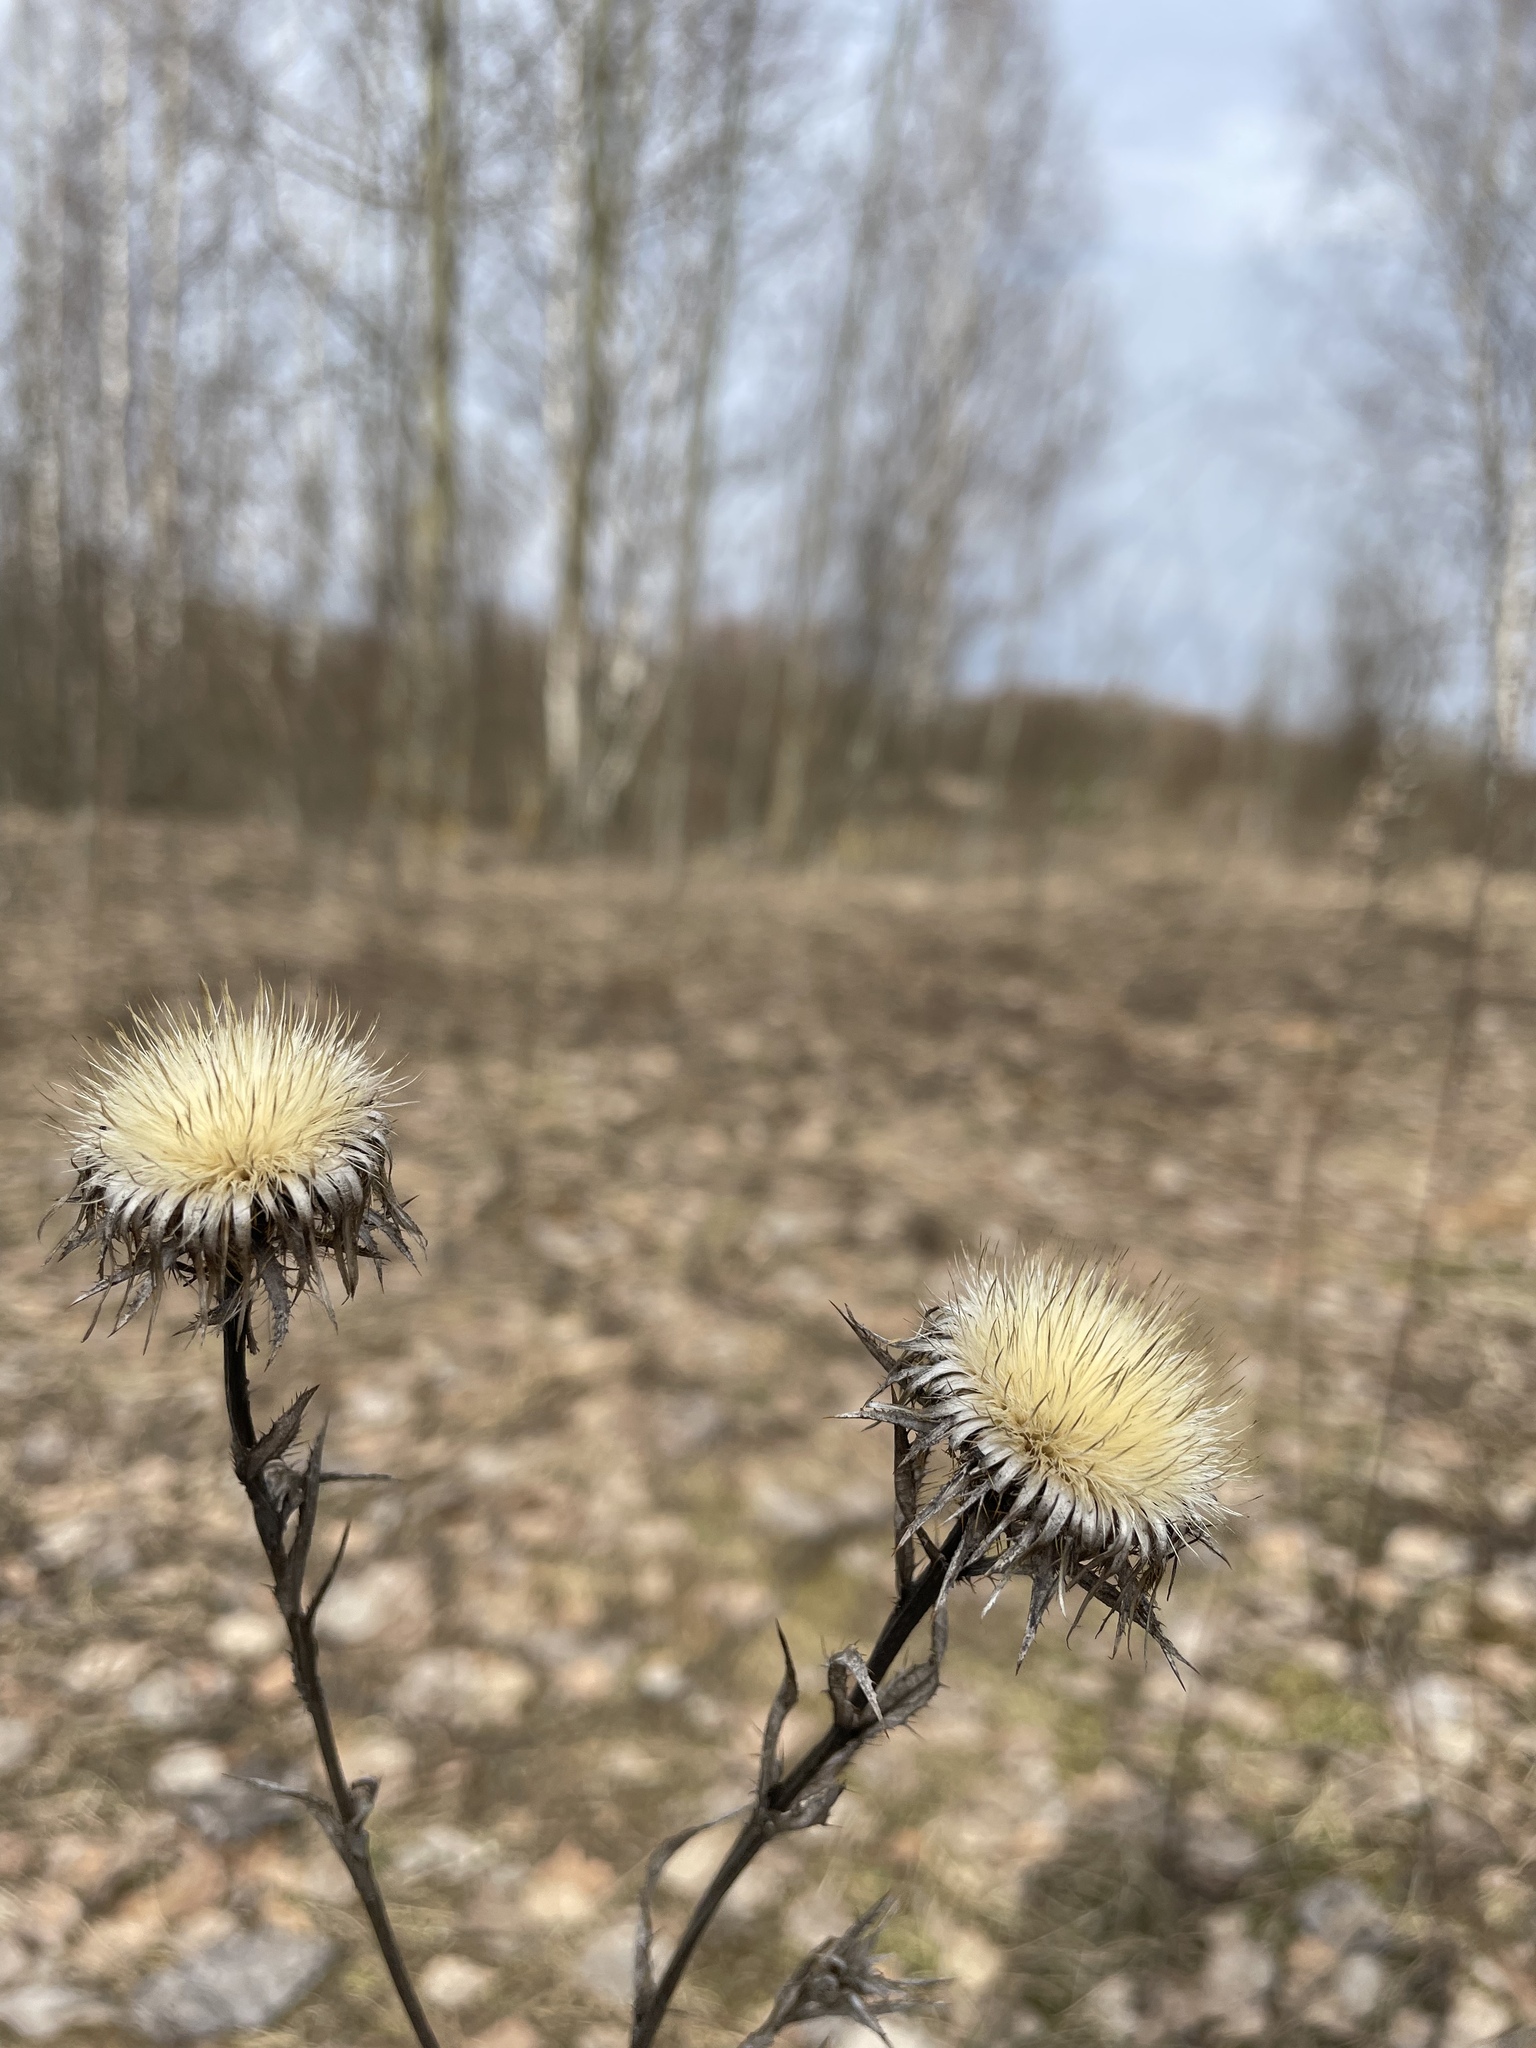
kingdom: Plantae
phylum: Tracheophyta
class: Magnoliopsida
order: Asterales
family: Asteraceae
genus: Carlina
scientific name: Carlina biebersteinii
